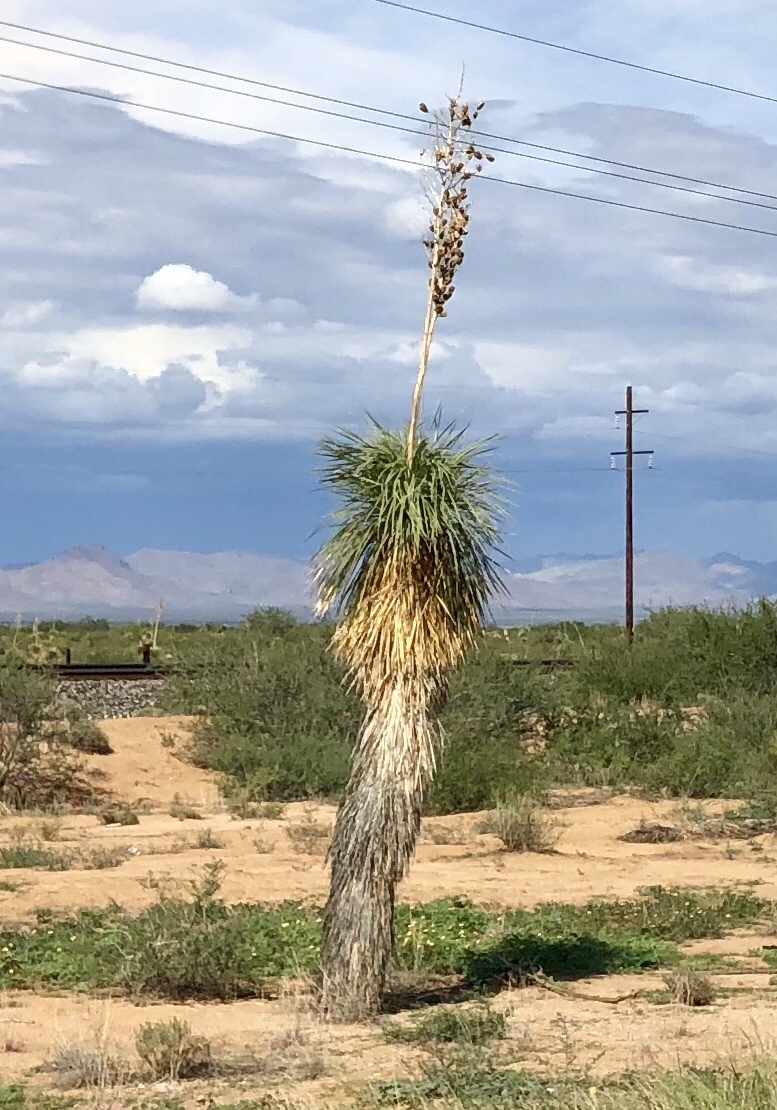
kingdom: Plantae
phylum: Tracheophyta
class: Liliopsida
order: Asparagales
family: Asparagaceae
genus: Yucca
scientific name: Yucca elata
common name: Palmella
